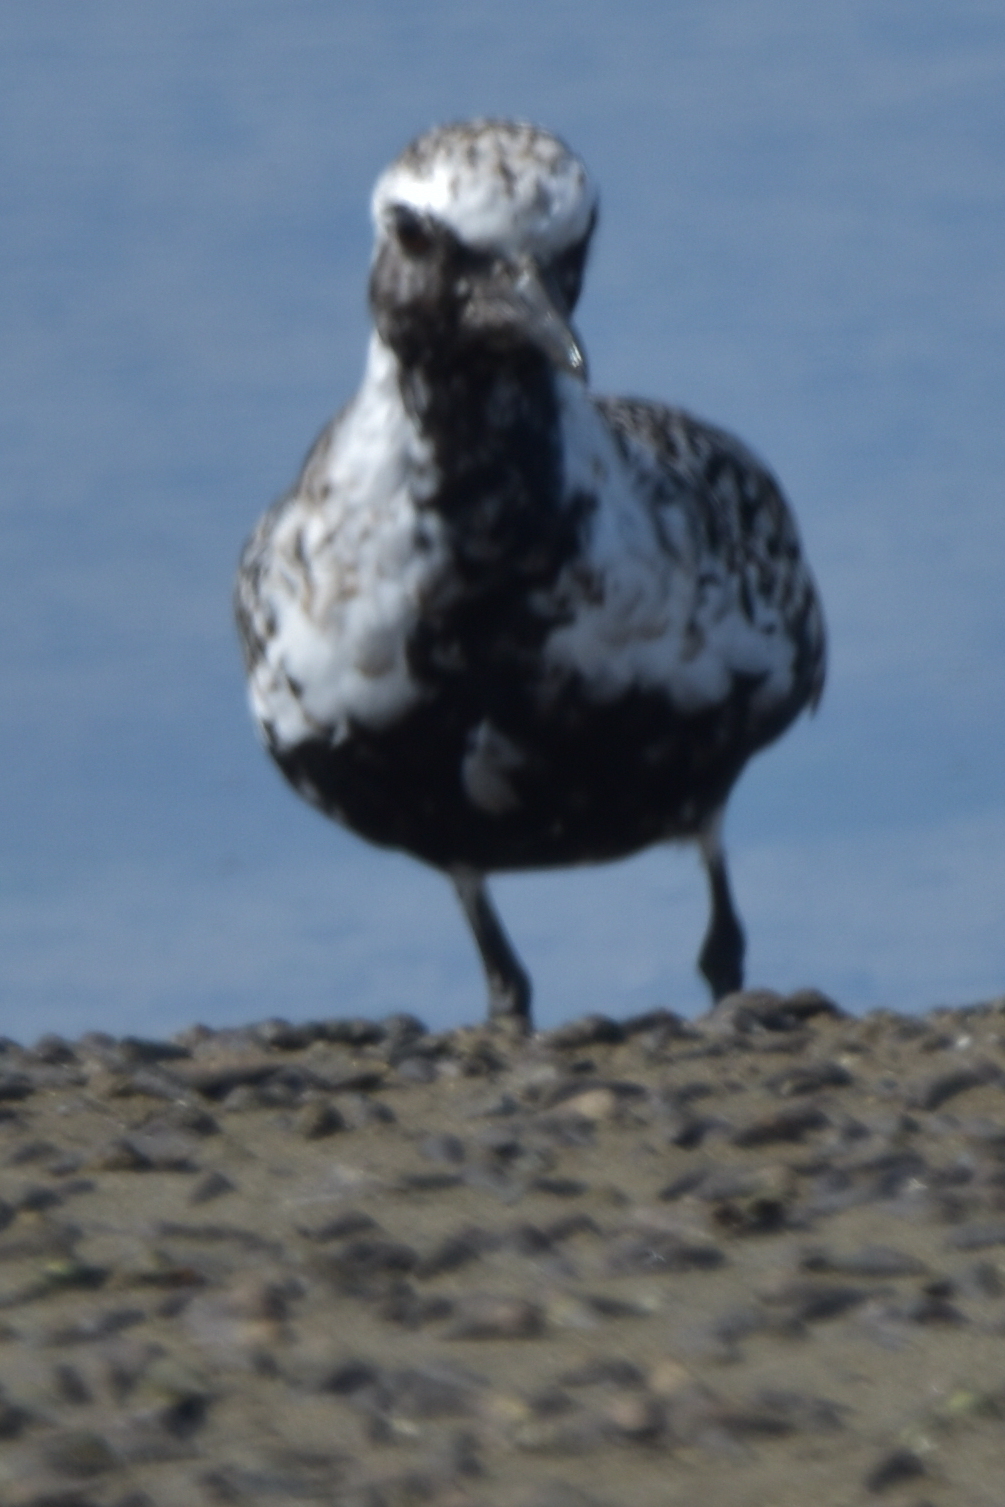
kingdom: Animalia
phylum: Chordata
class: Aves
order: Charadriiformes
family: Charadriidae
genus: Pluvialis
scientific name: Pluvialis squatarola
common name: Grey plover
